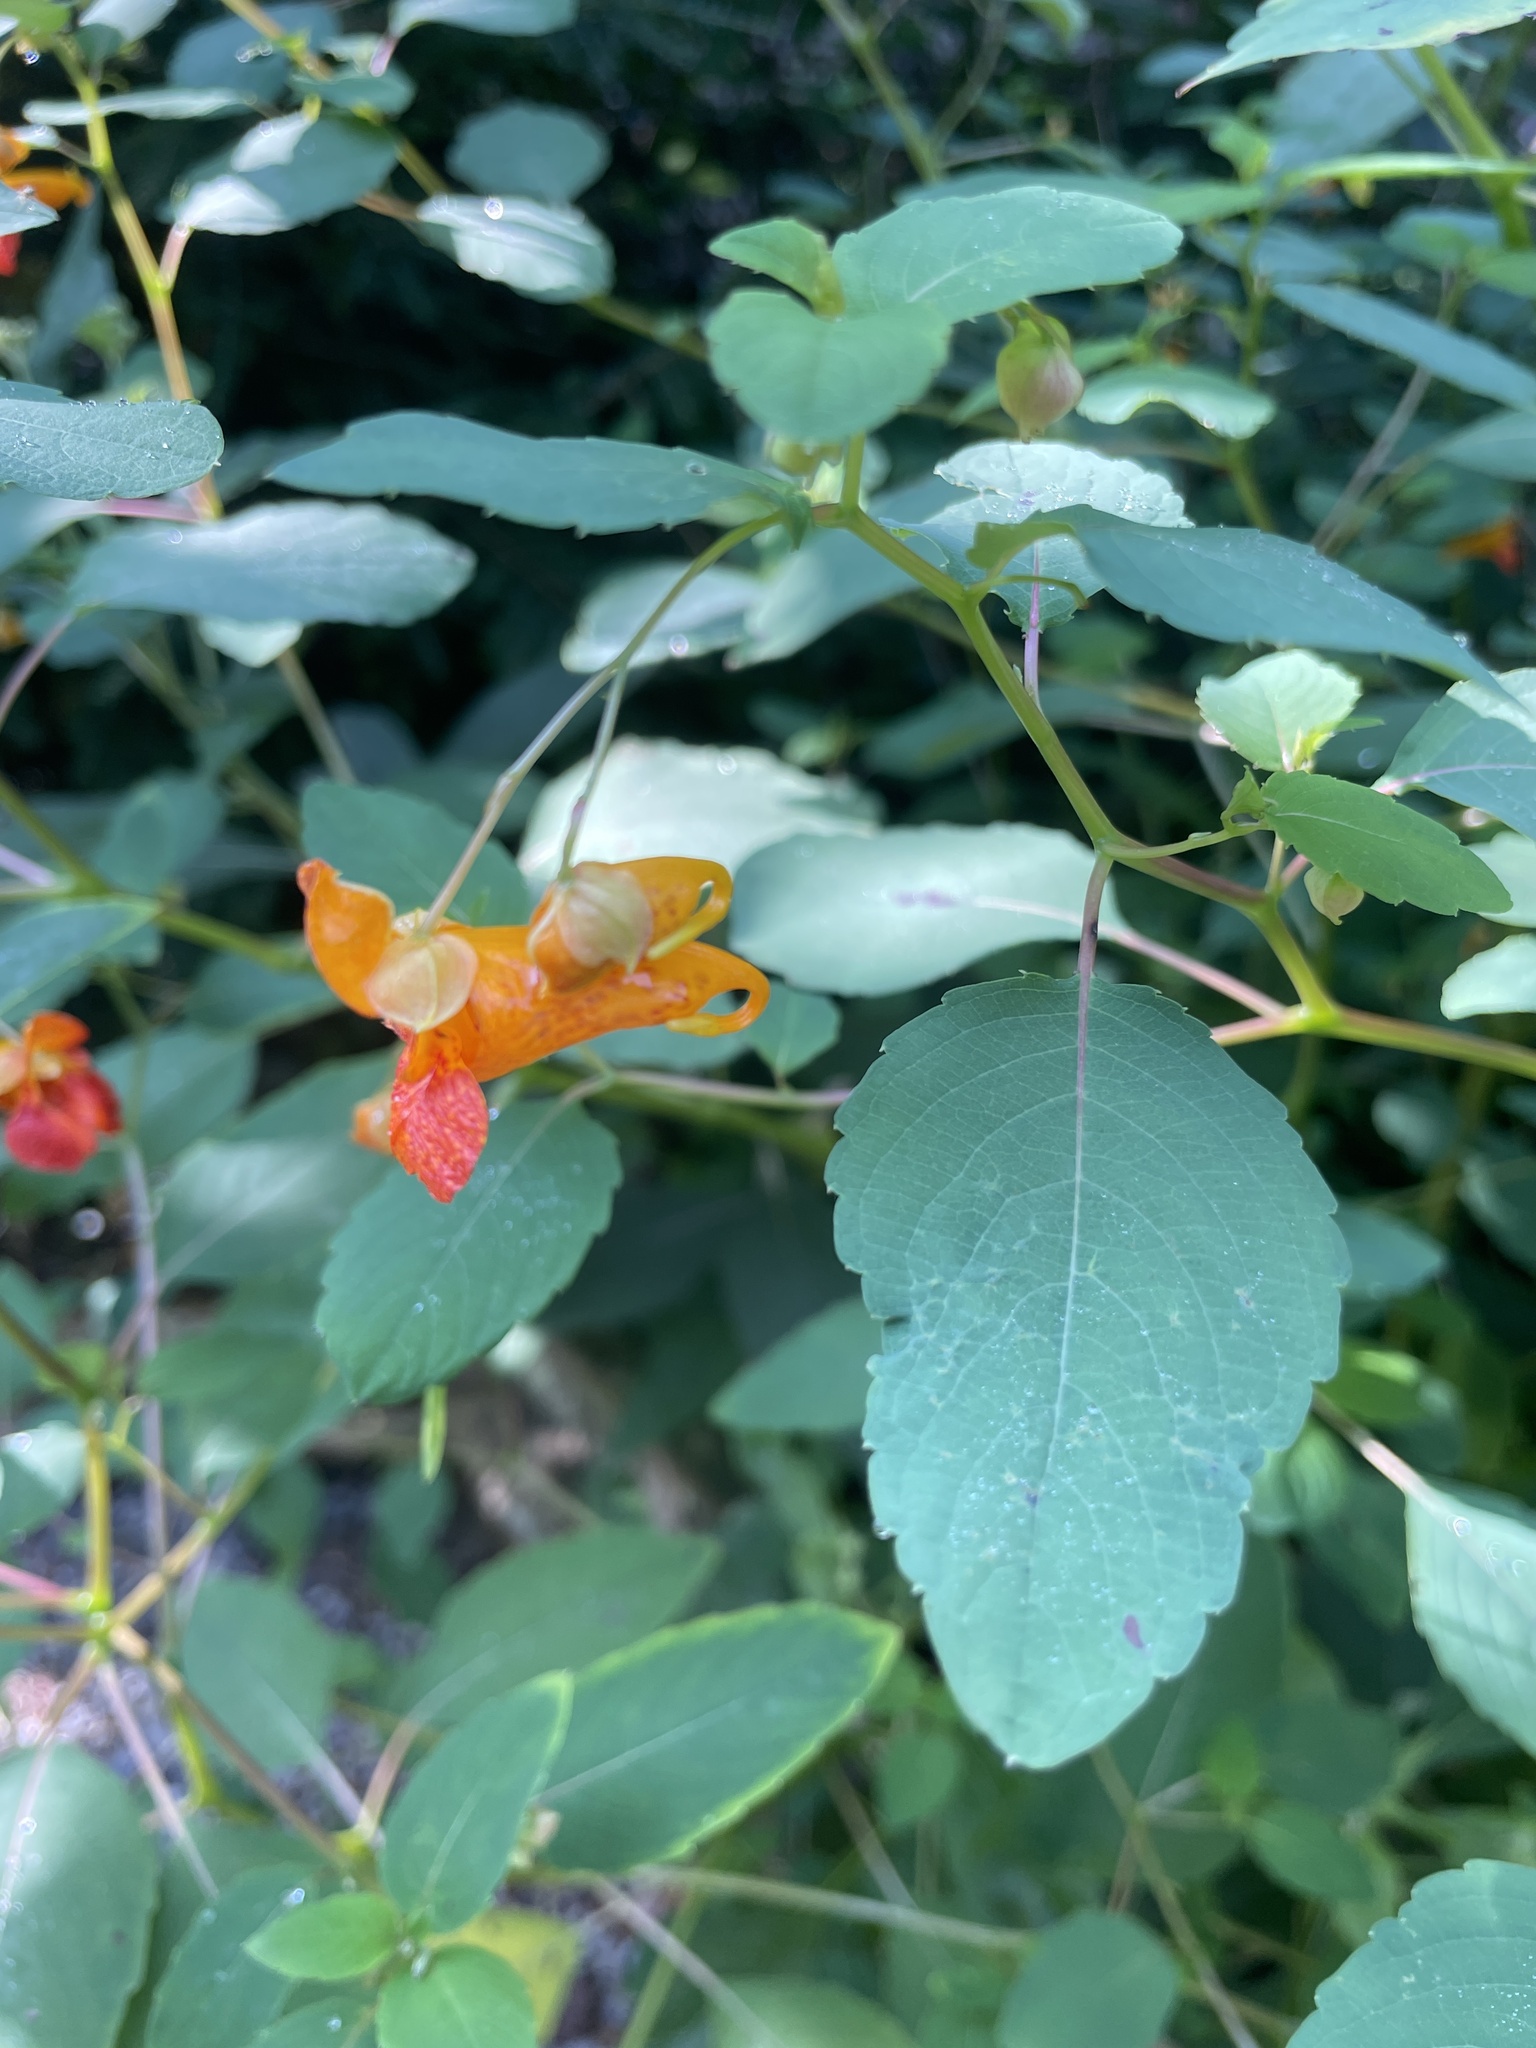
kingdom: Plantae
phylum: Tracheophyta
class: Magnoliopsida
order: Ericales
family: Balsaminaceae
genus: Impatiens
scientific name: Impatiens capensis
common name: Orange balsam
